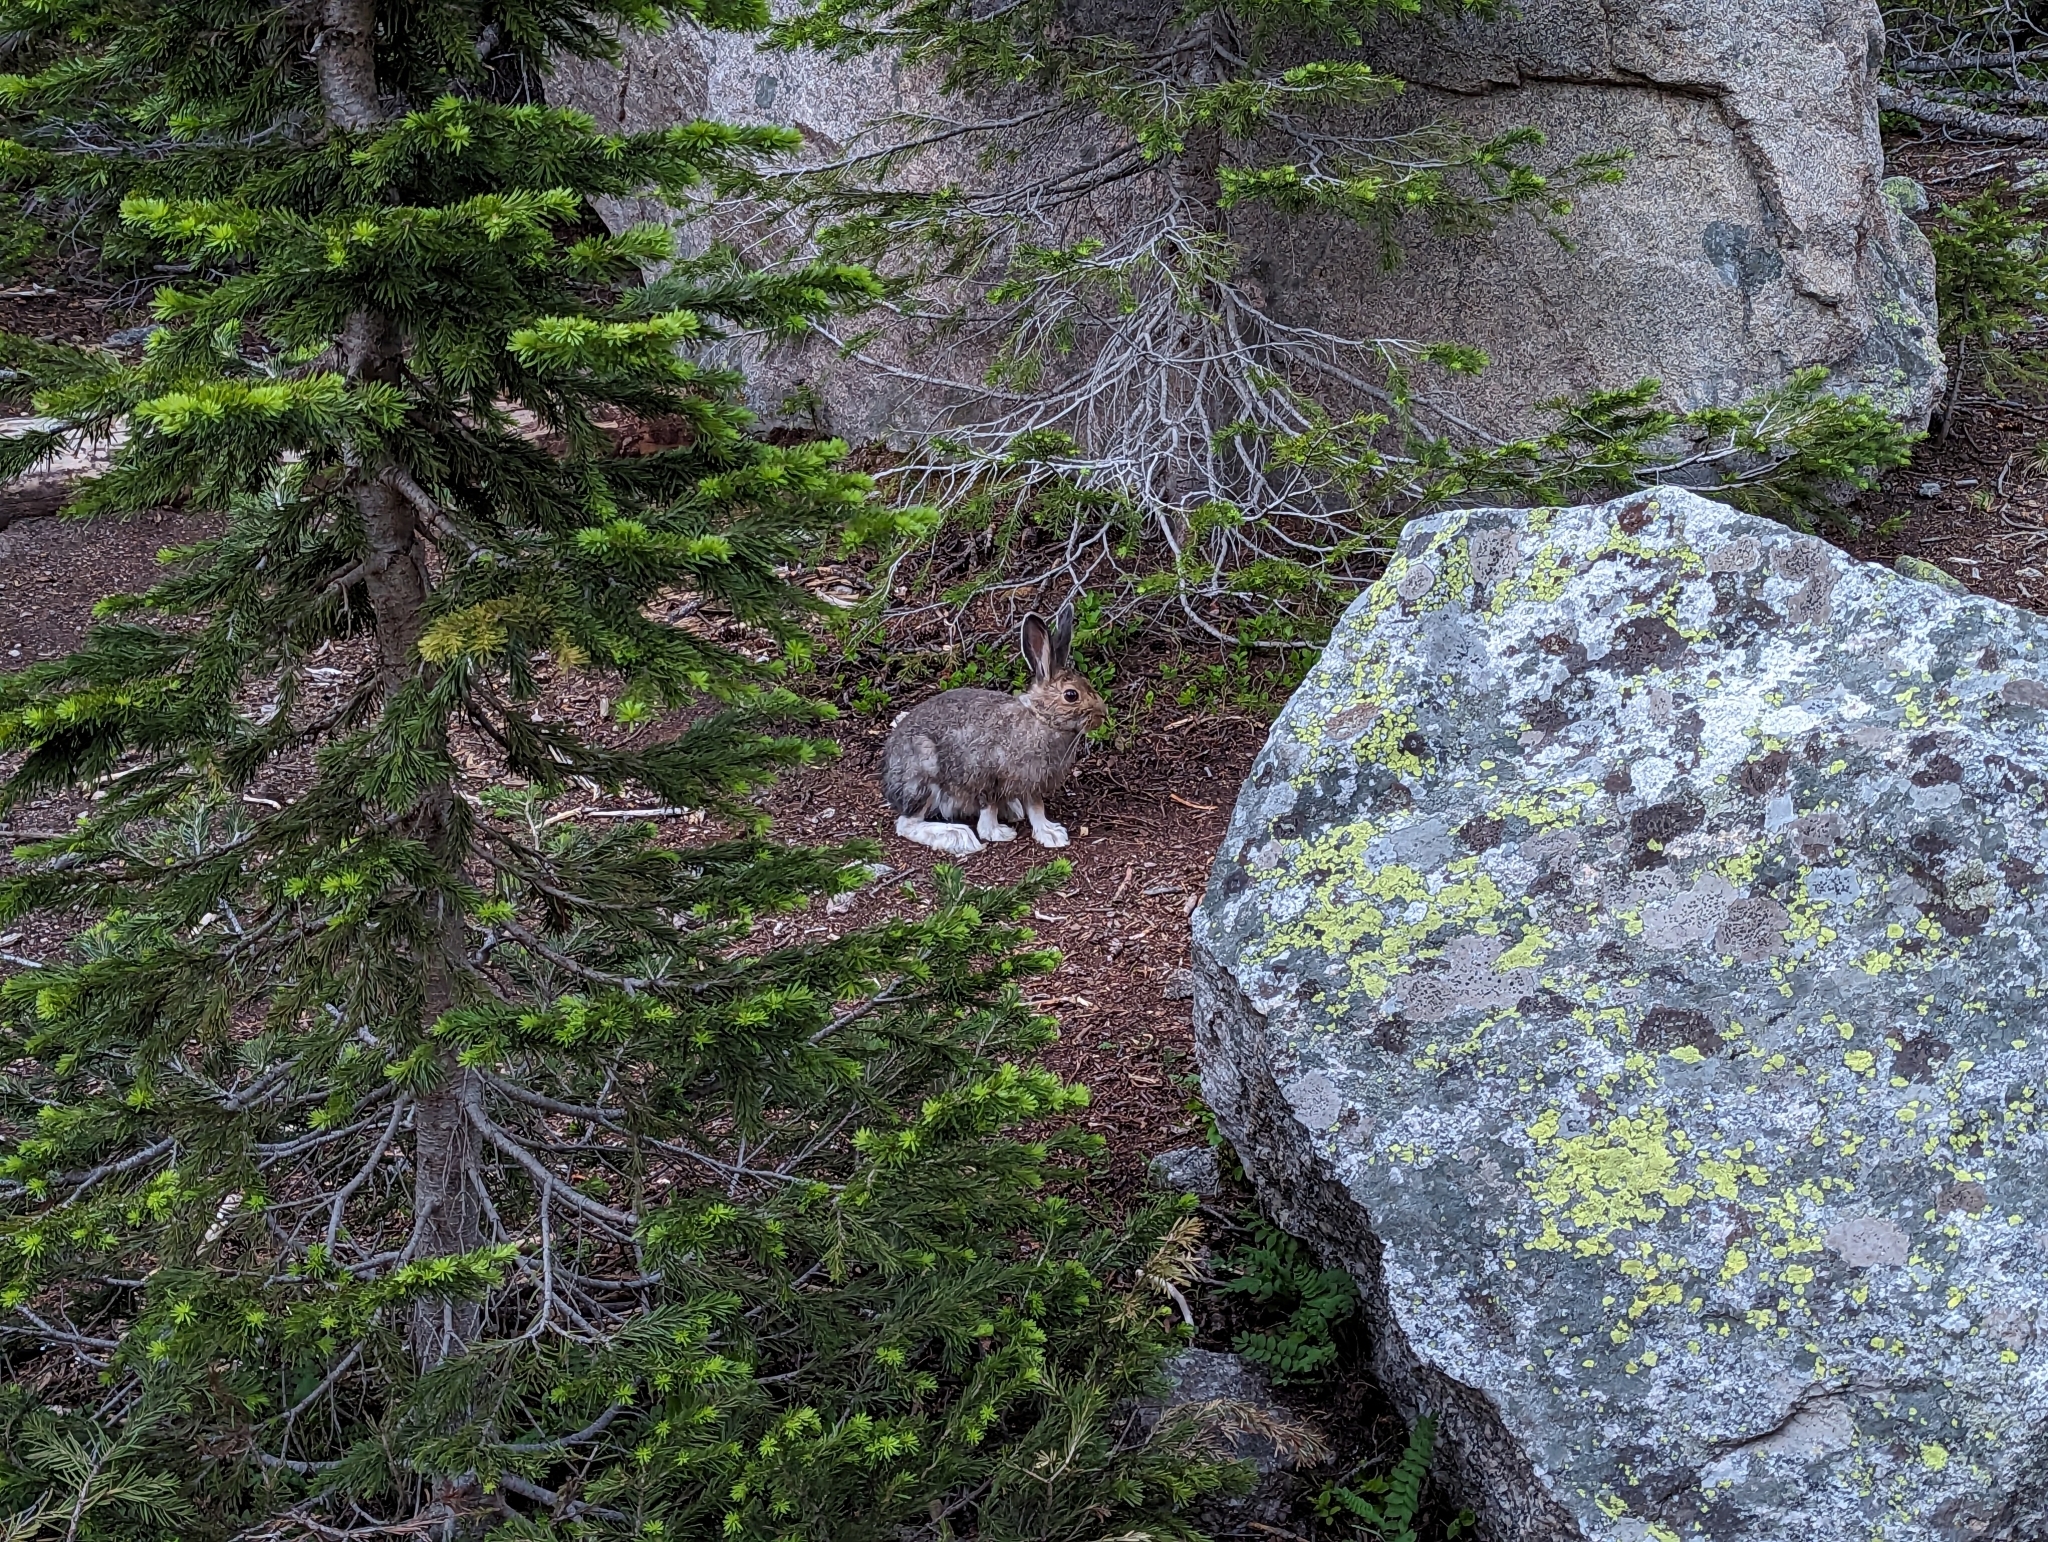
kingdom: Animalia
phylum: Chordata
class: Mammalia
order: Lagomorpha
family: Leporidae
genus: Lepus
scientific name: Lepus americanus
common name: Snowshoe hare
